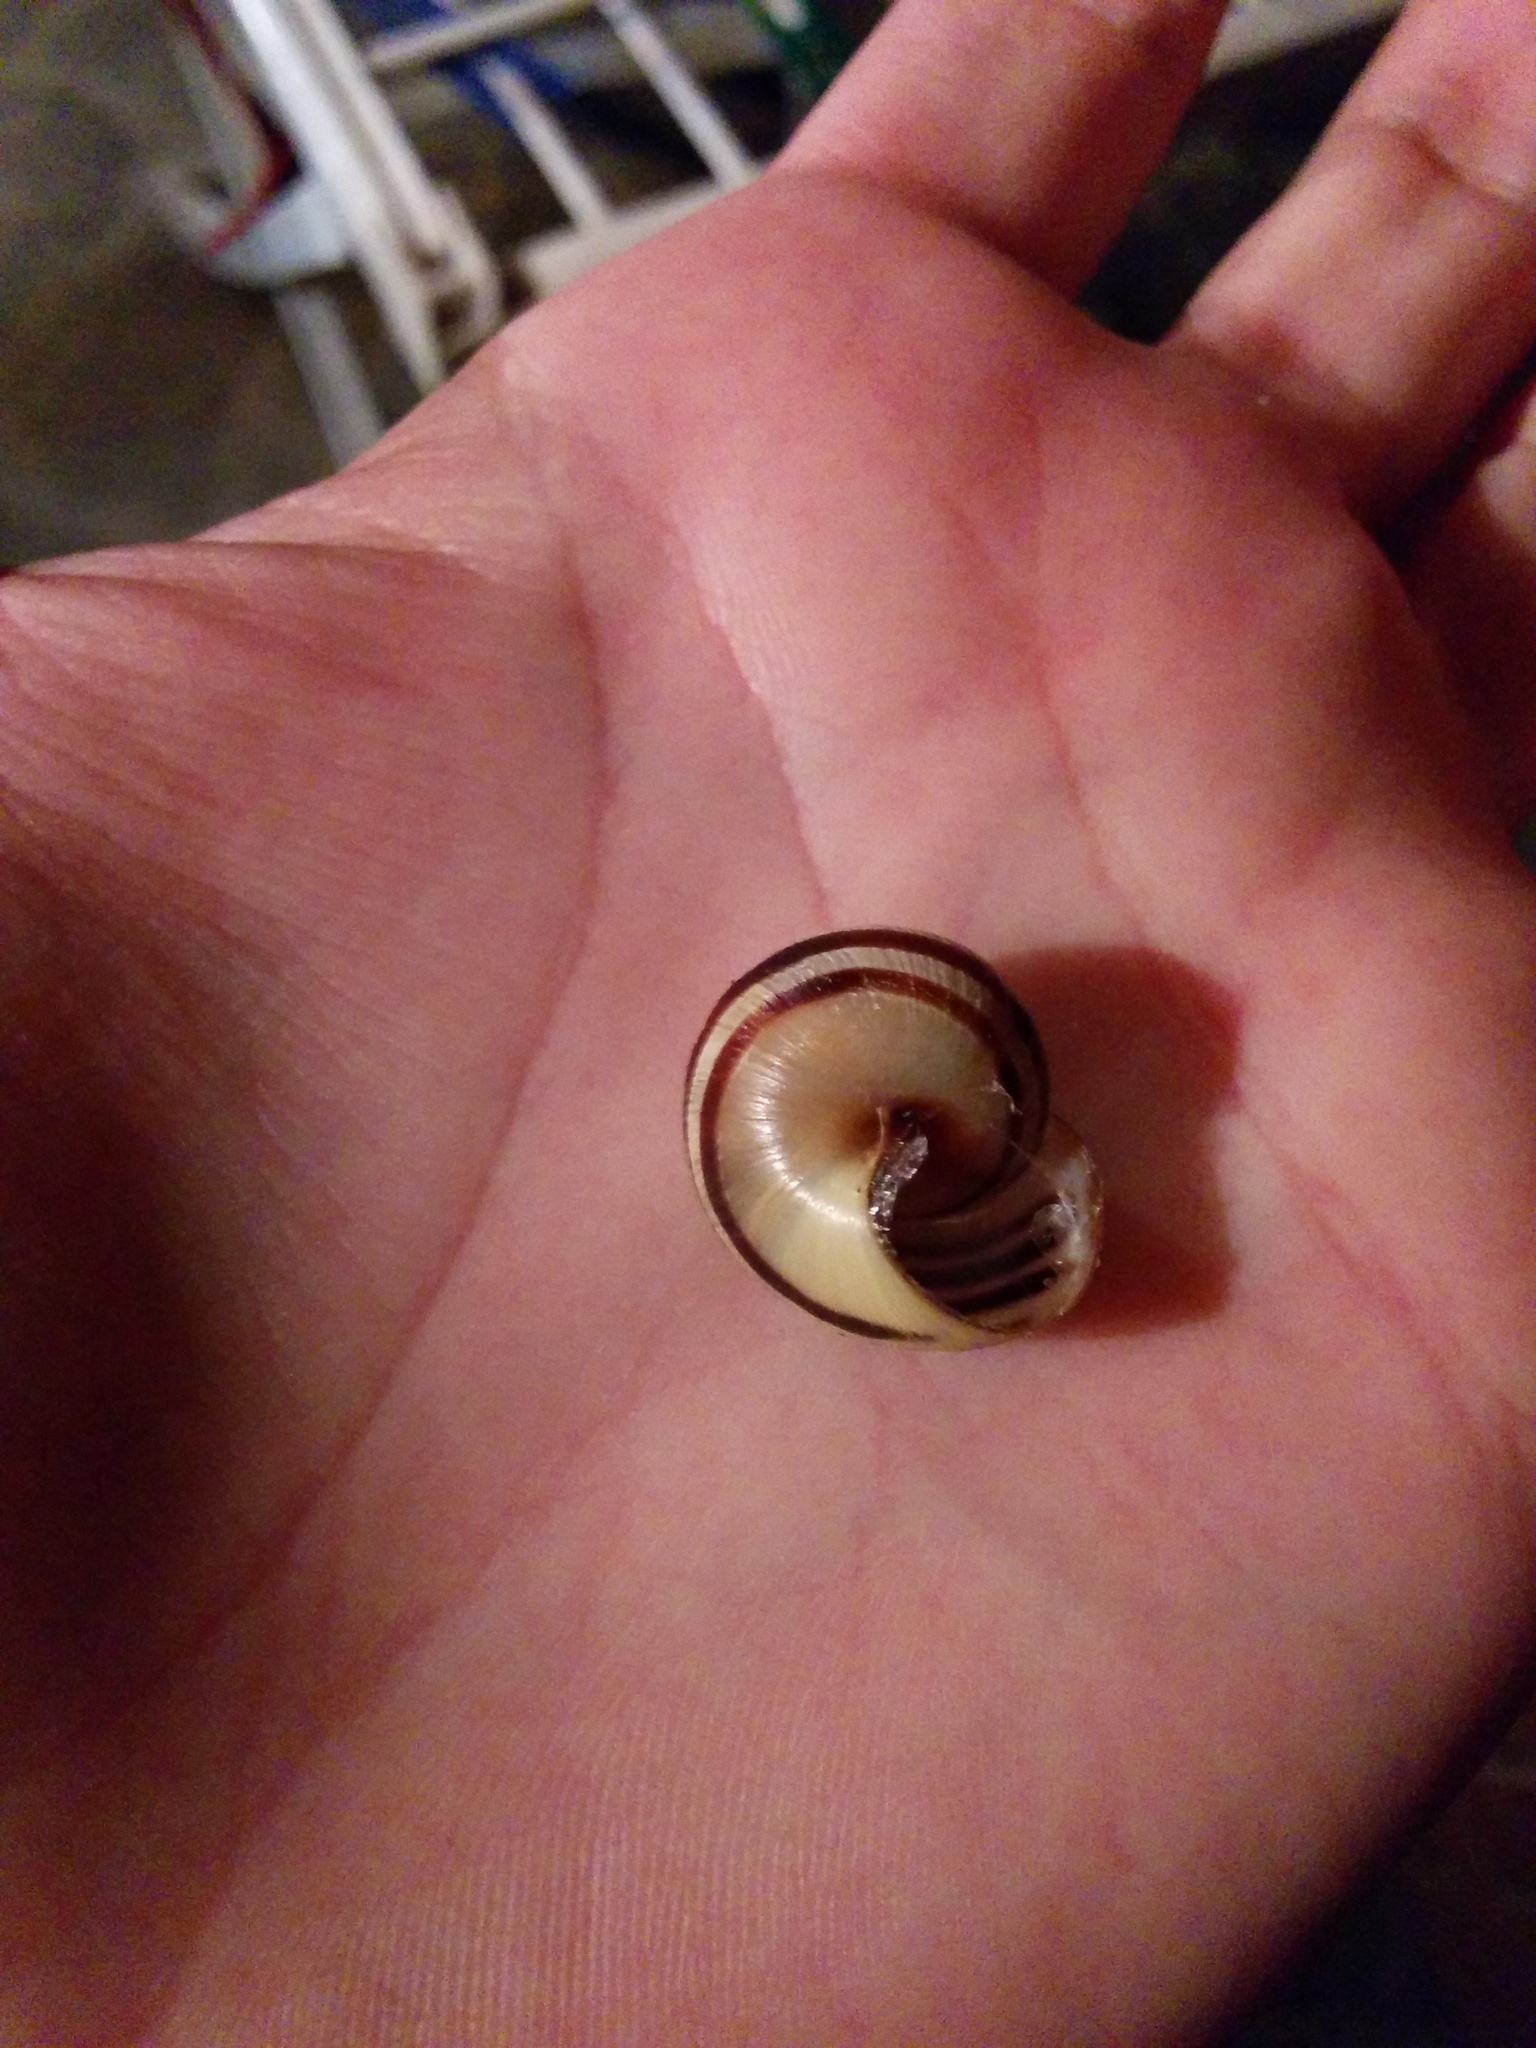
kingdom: Animalia
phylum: Mollusca
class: Gastropoda
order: Stylommatophora
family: Helicidae
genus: Cepaea
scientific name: Cepaea nemoralis
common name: Grovesnail
